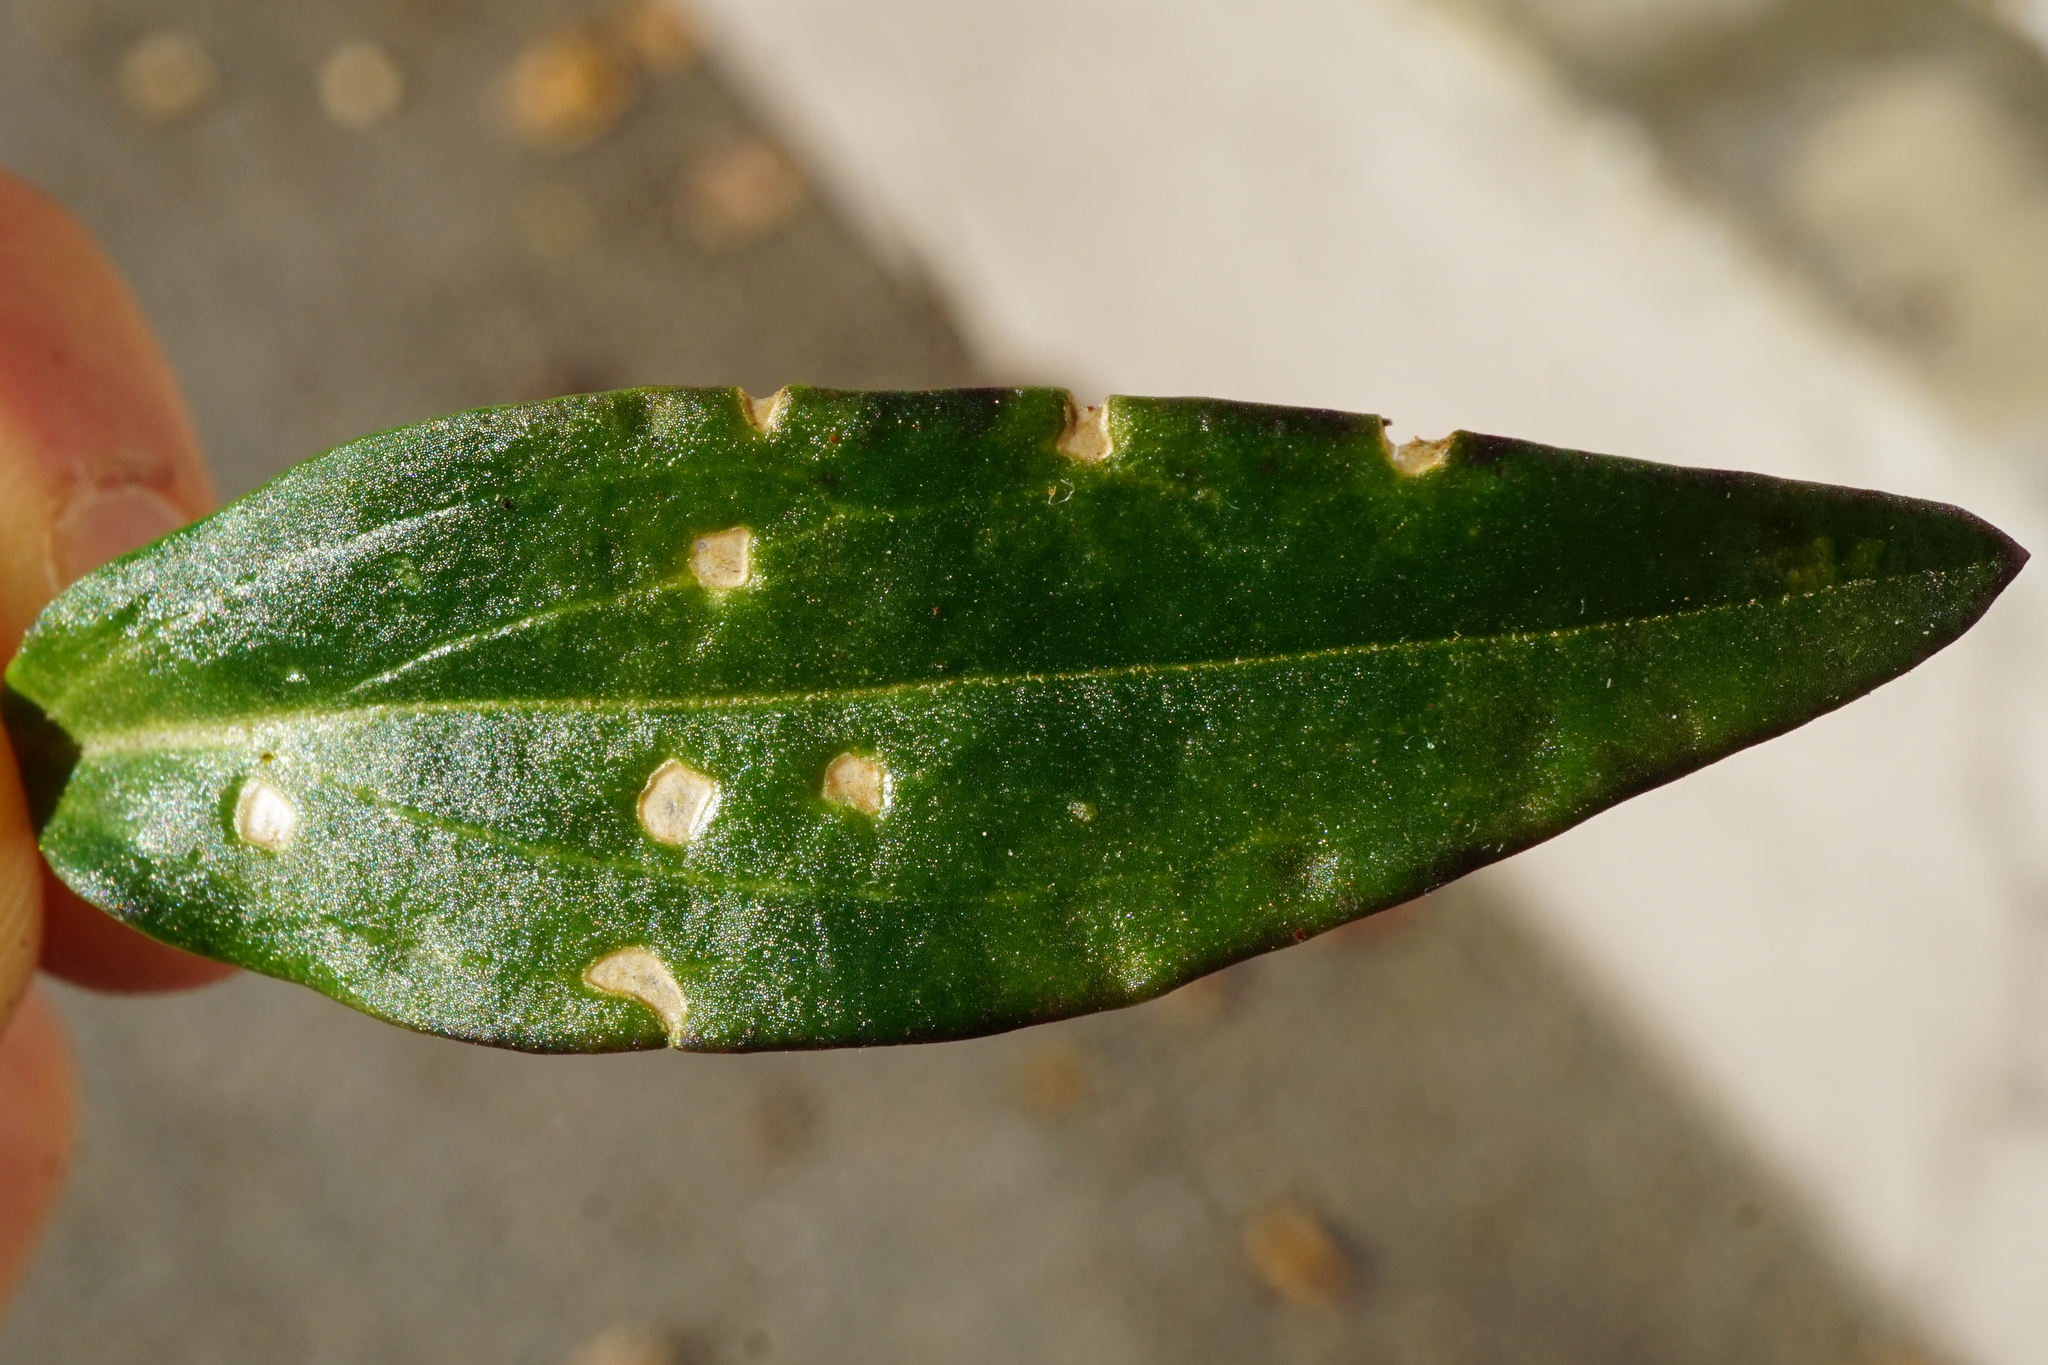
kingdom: Fungi
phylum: Basidiomycota
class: Pucciniomycetes
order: Pucciniales
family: Pucciniaceae
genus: Puccinia
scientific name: Puccinia antirrhini
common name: Antirrhinum rust
